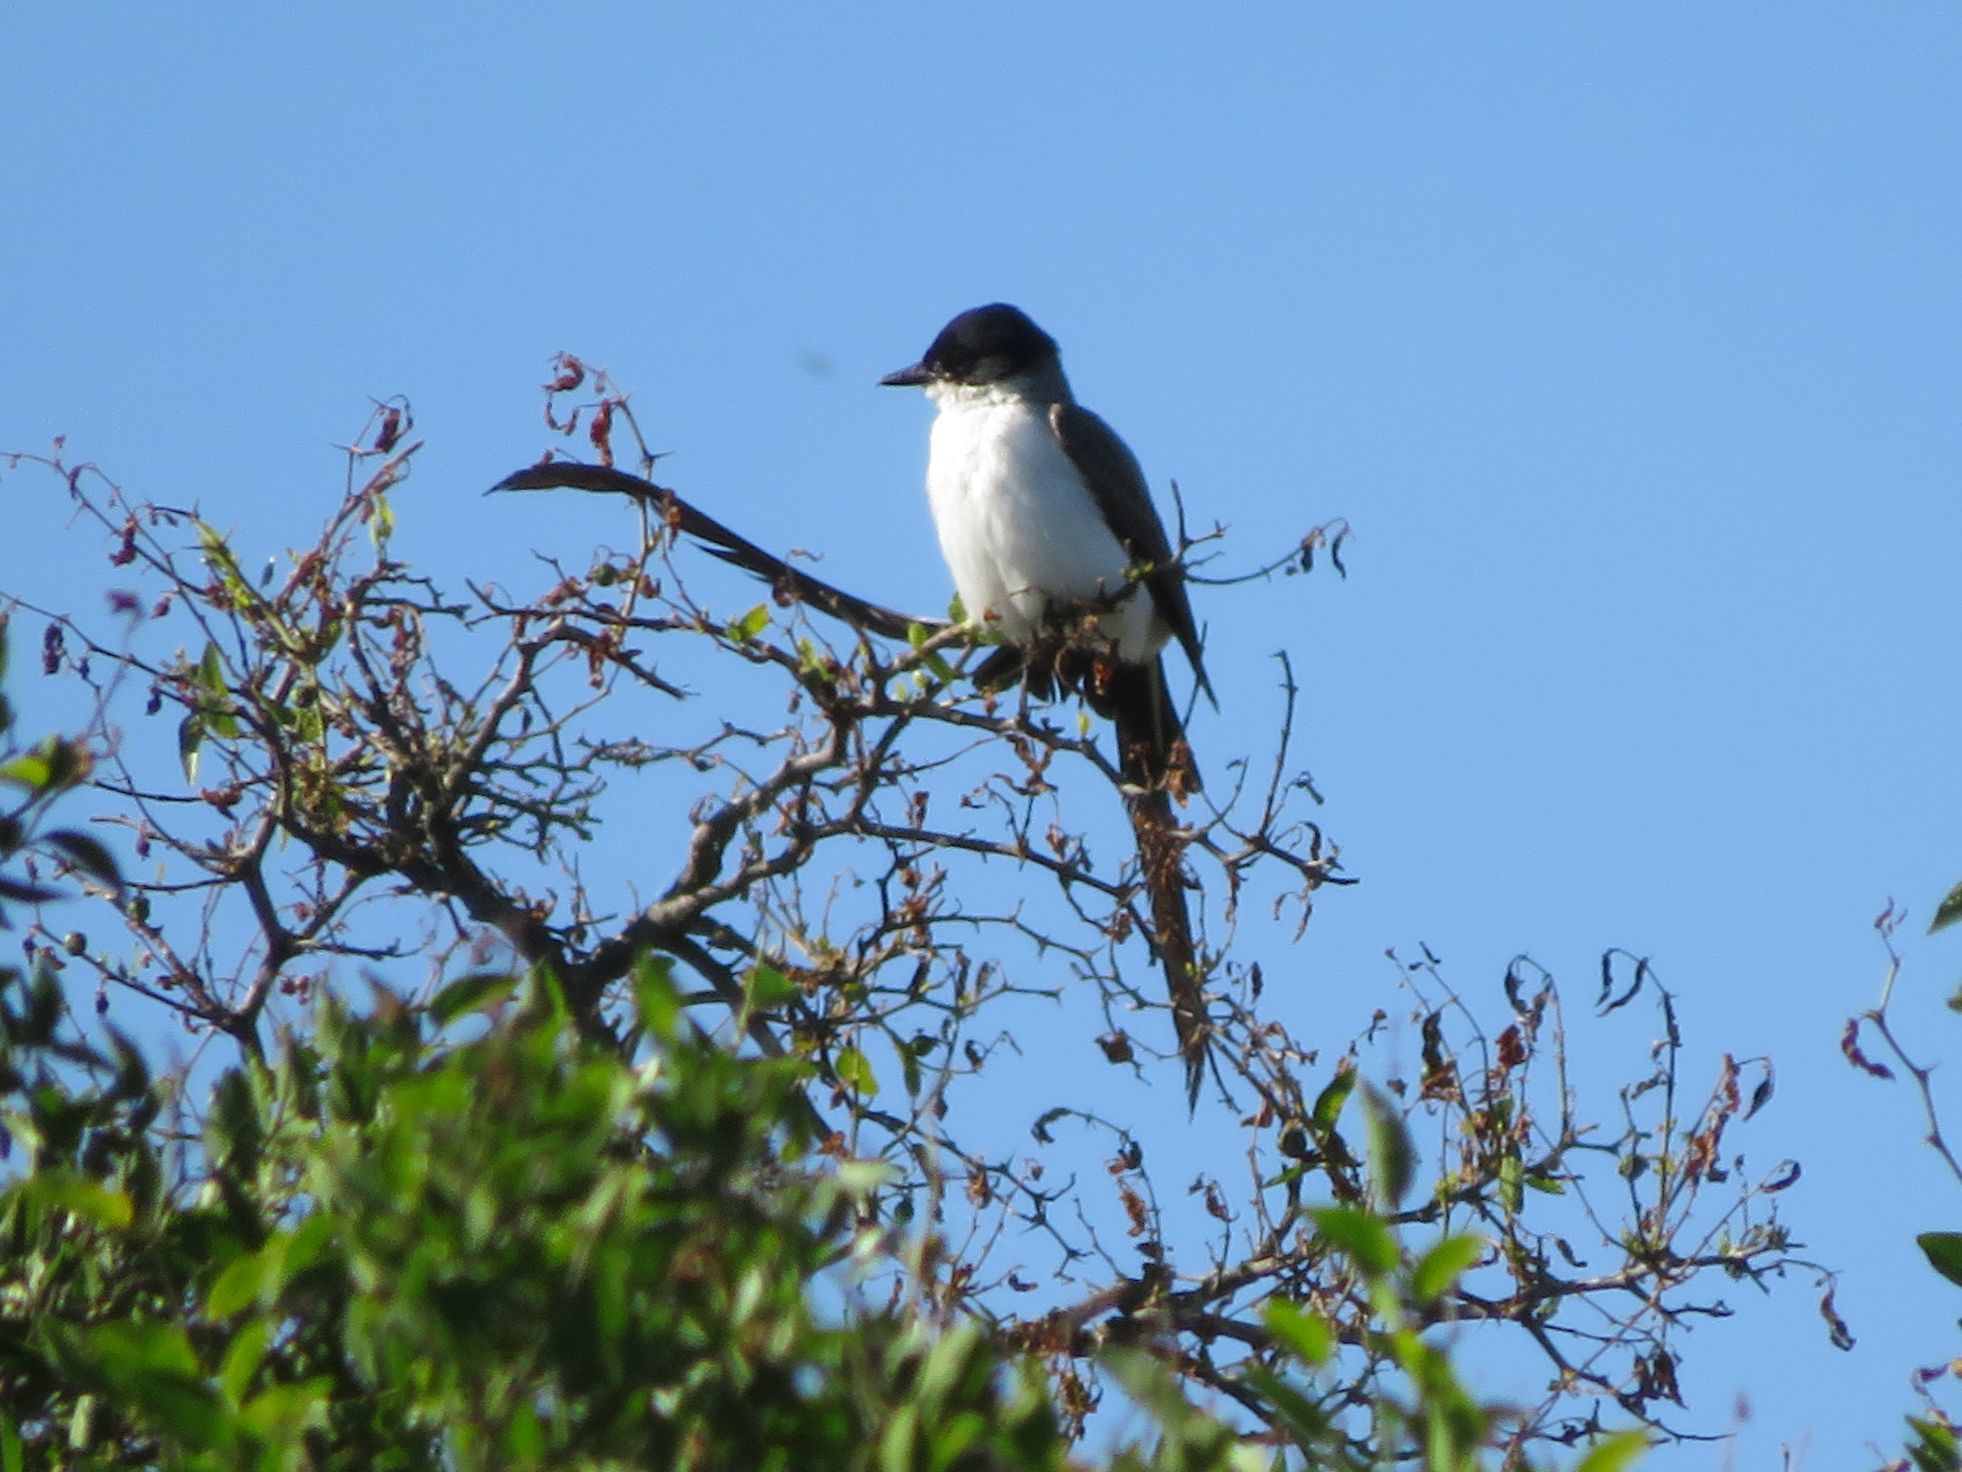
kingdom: Animalia
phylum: Chordata
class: Aves
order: Passeriformes
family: Tyrannidae
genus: Tyrannus
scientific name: Tyrannus savana
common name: Fork-tailed flycatcher
